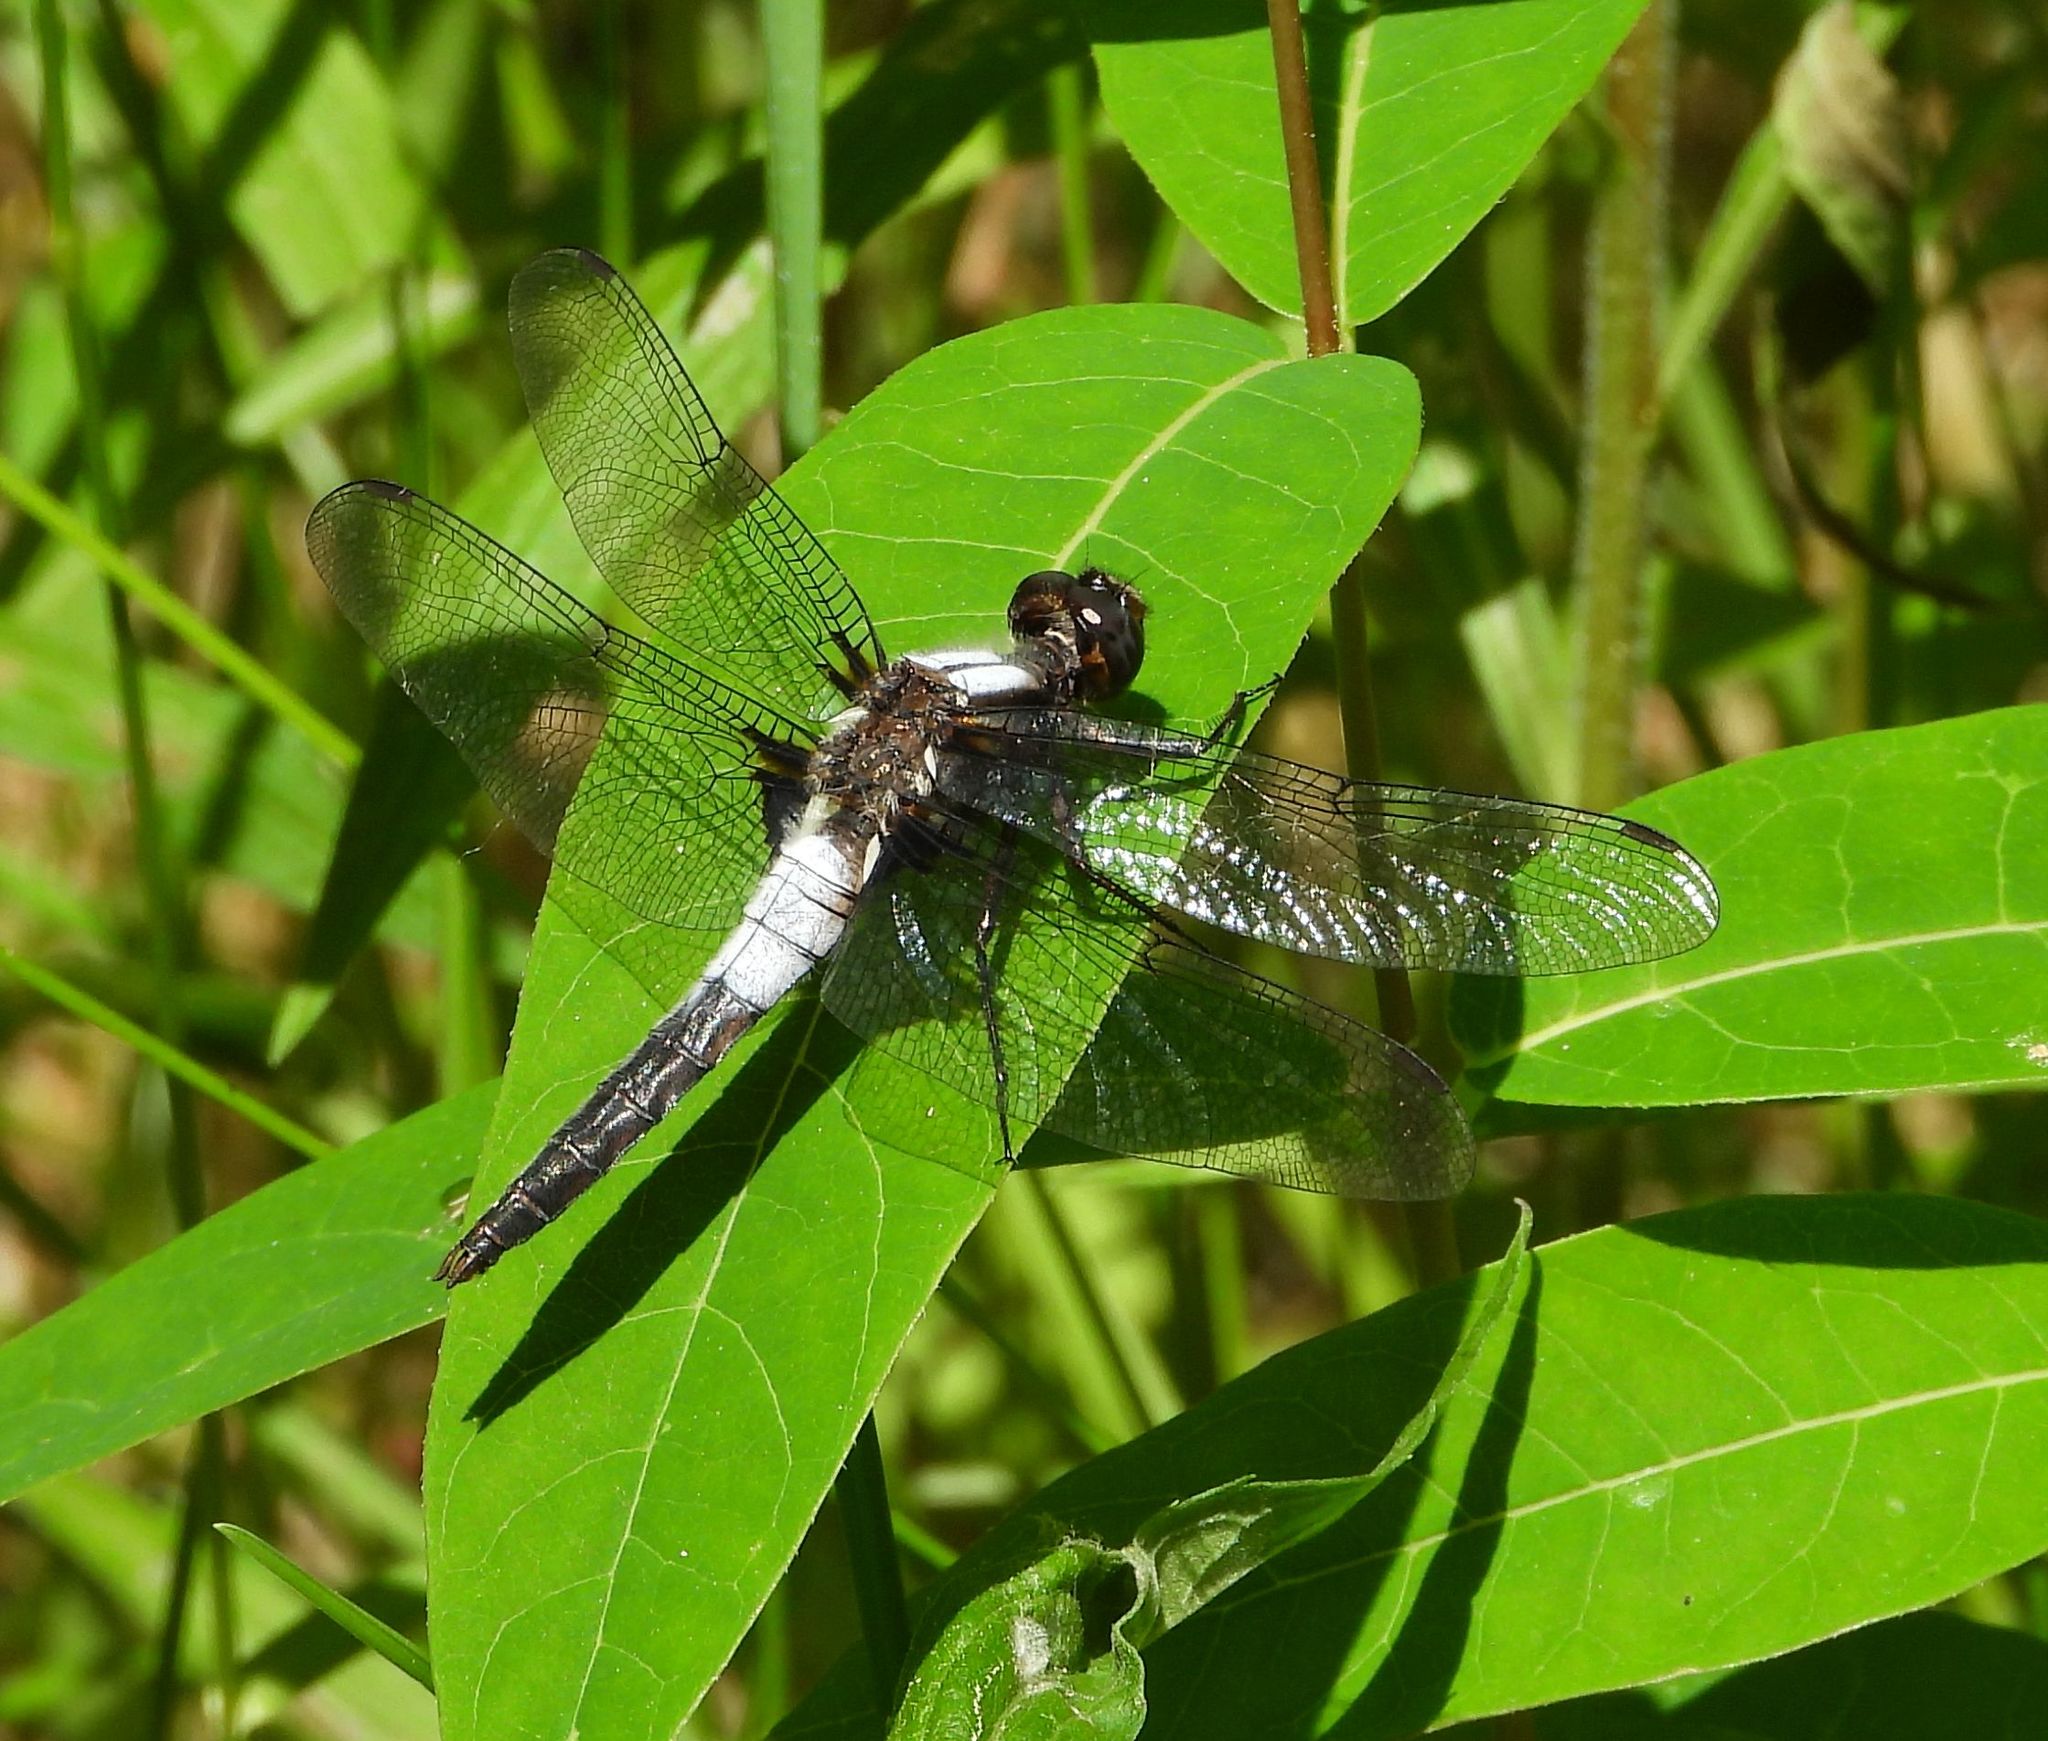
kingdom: Animalia
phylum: Arthropoda
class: Insecta
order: Odonata
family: Libellulidae
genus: Ladona
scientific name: Ladona julia
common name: Chalk-fronted corporal
